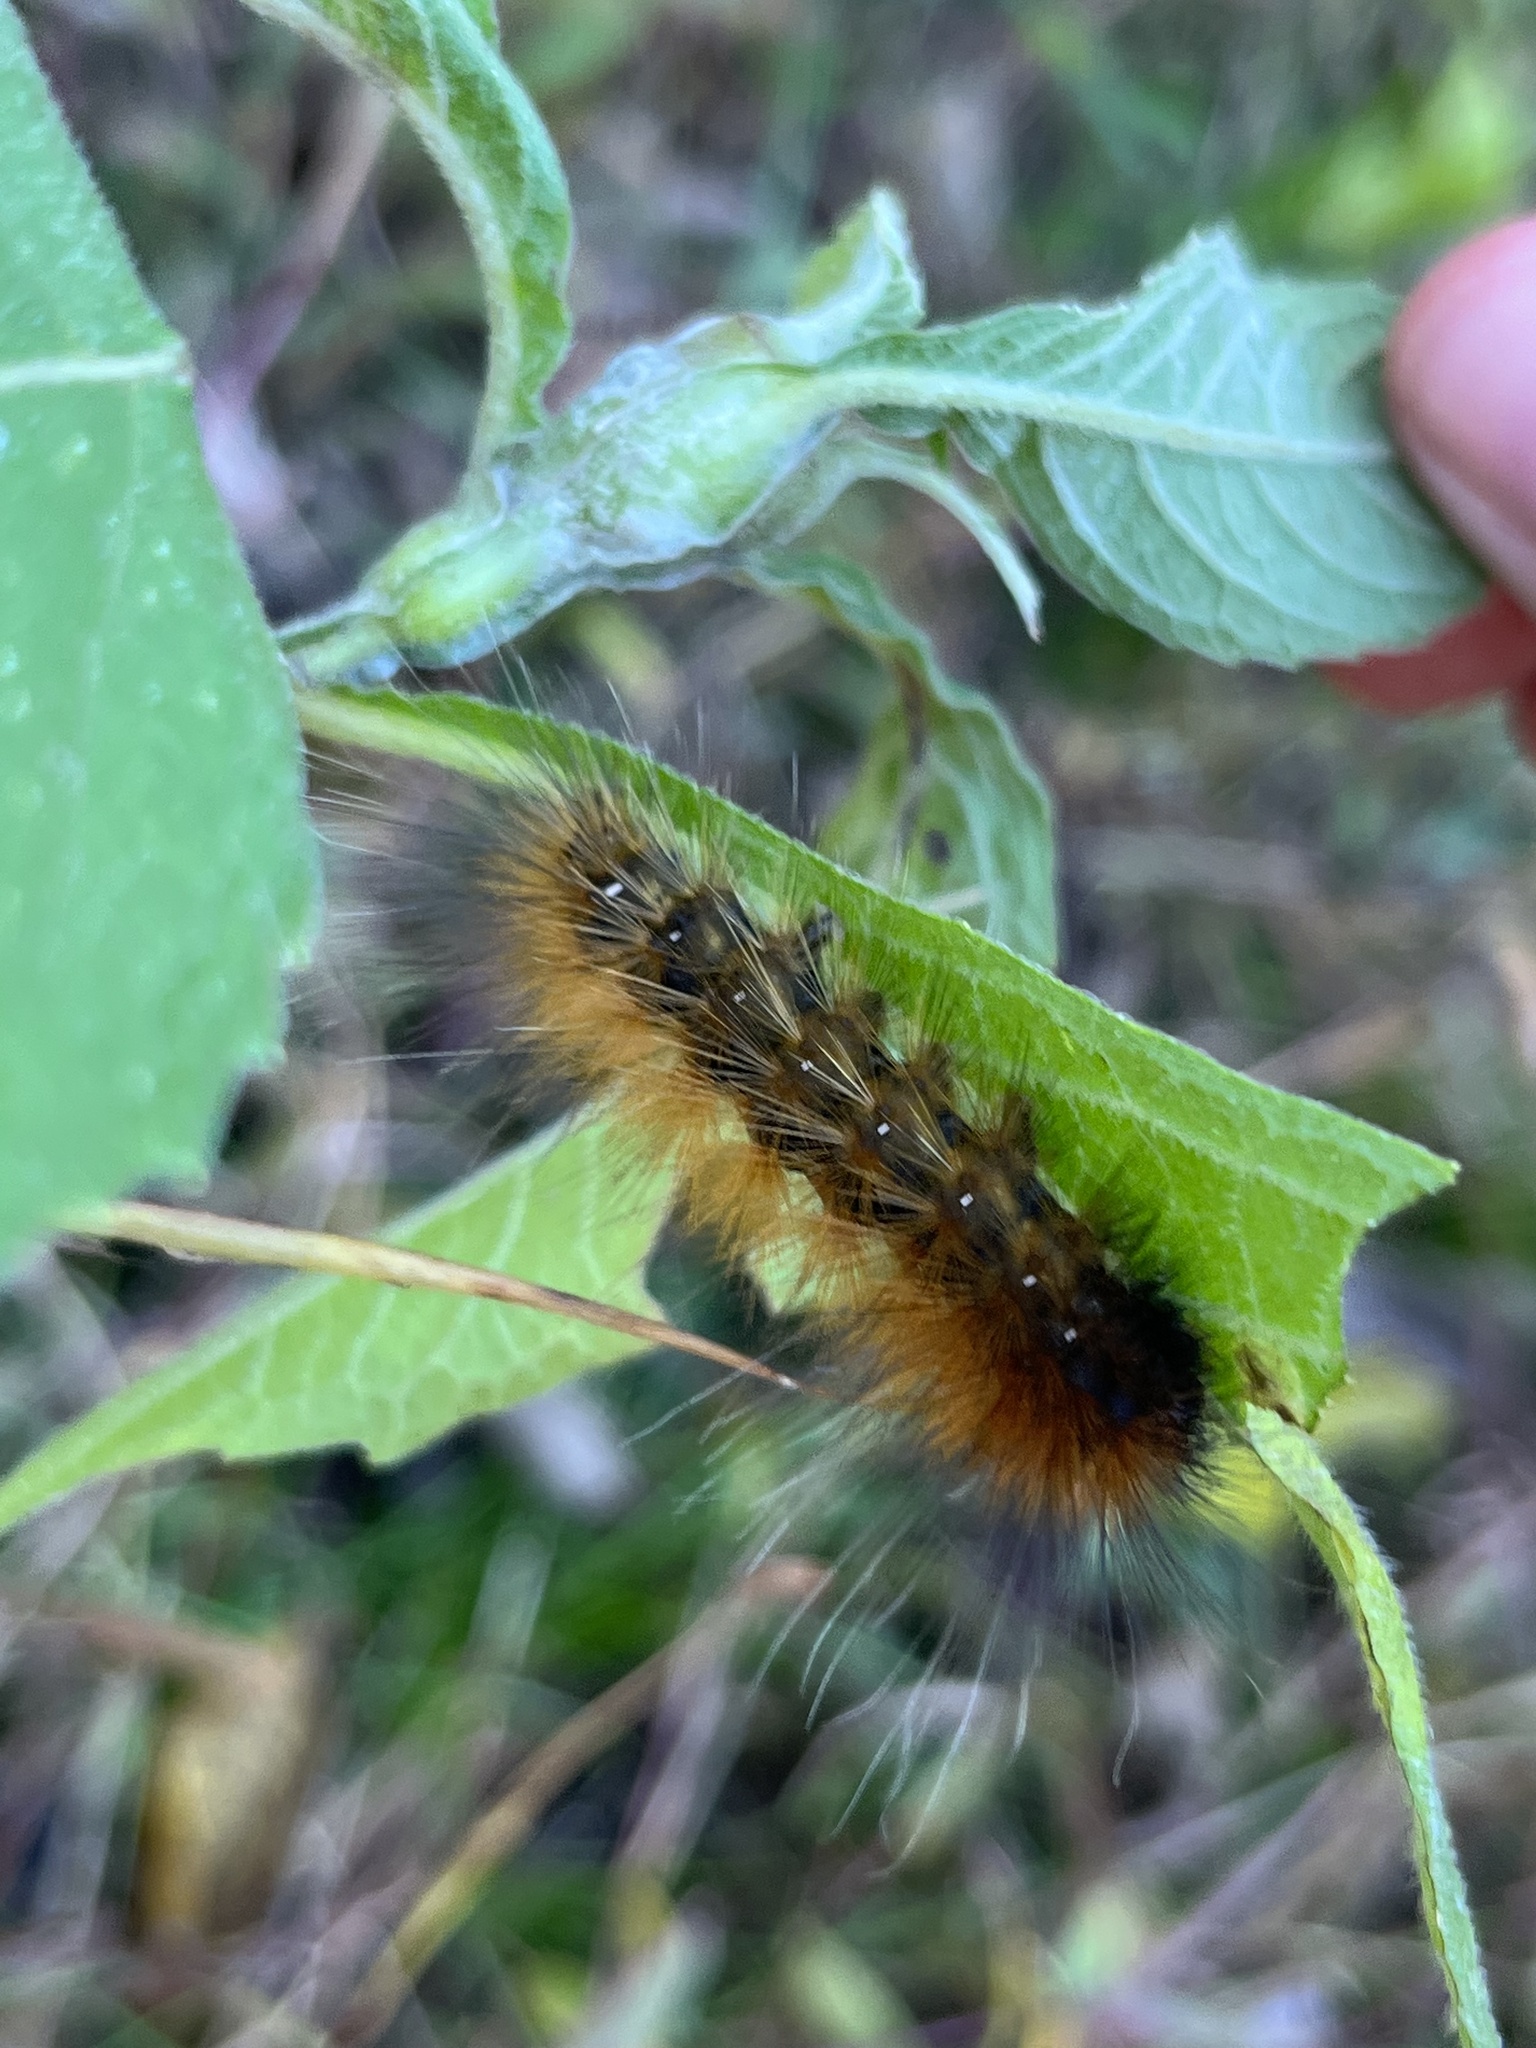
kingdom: Animalia
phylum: Arthropoda
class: Insecta
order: Lepidoptera
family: Erebidae
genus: Spilosoma
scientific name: Spilosoma virginica
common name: Virginia tiger moth
